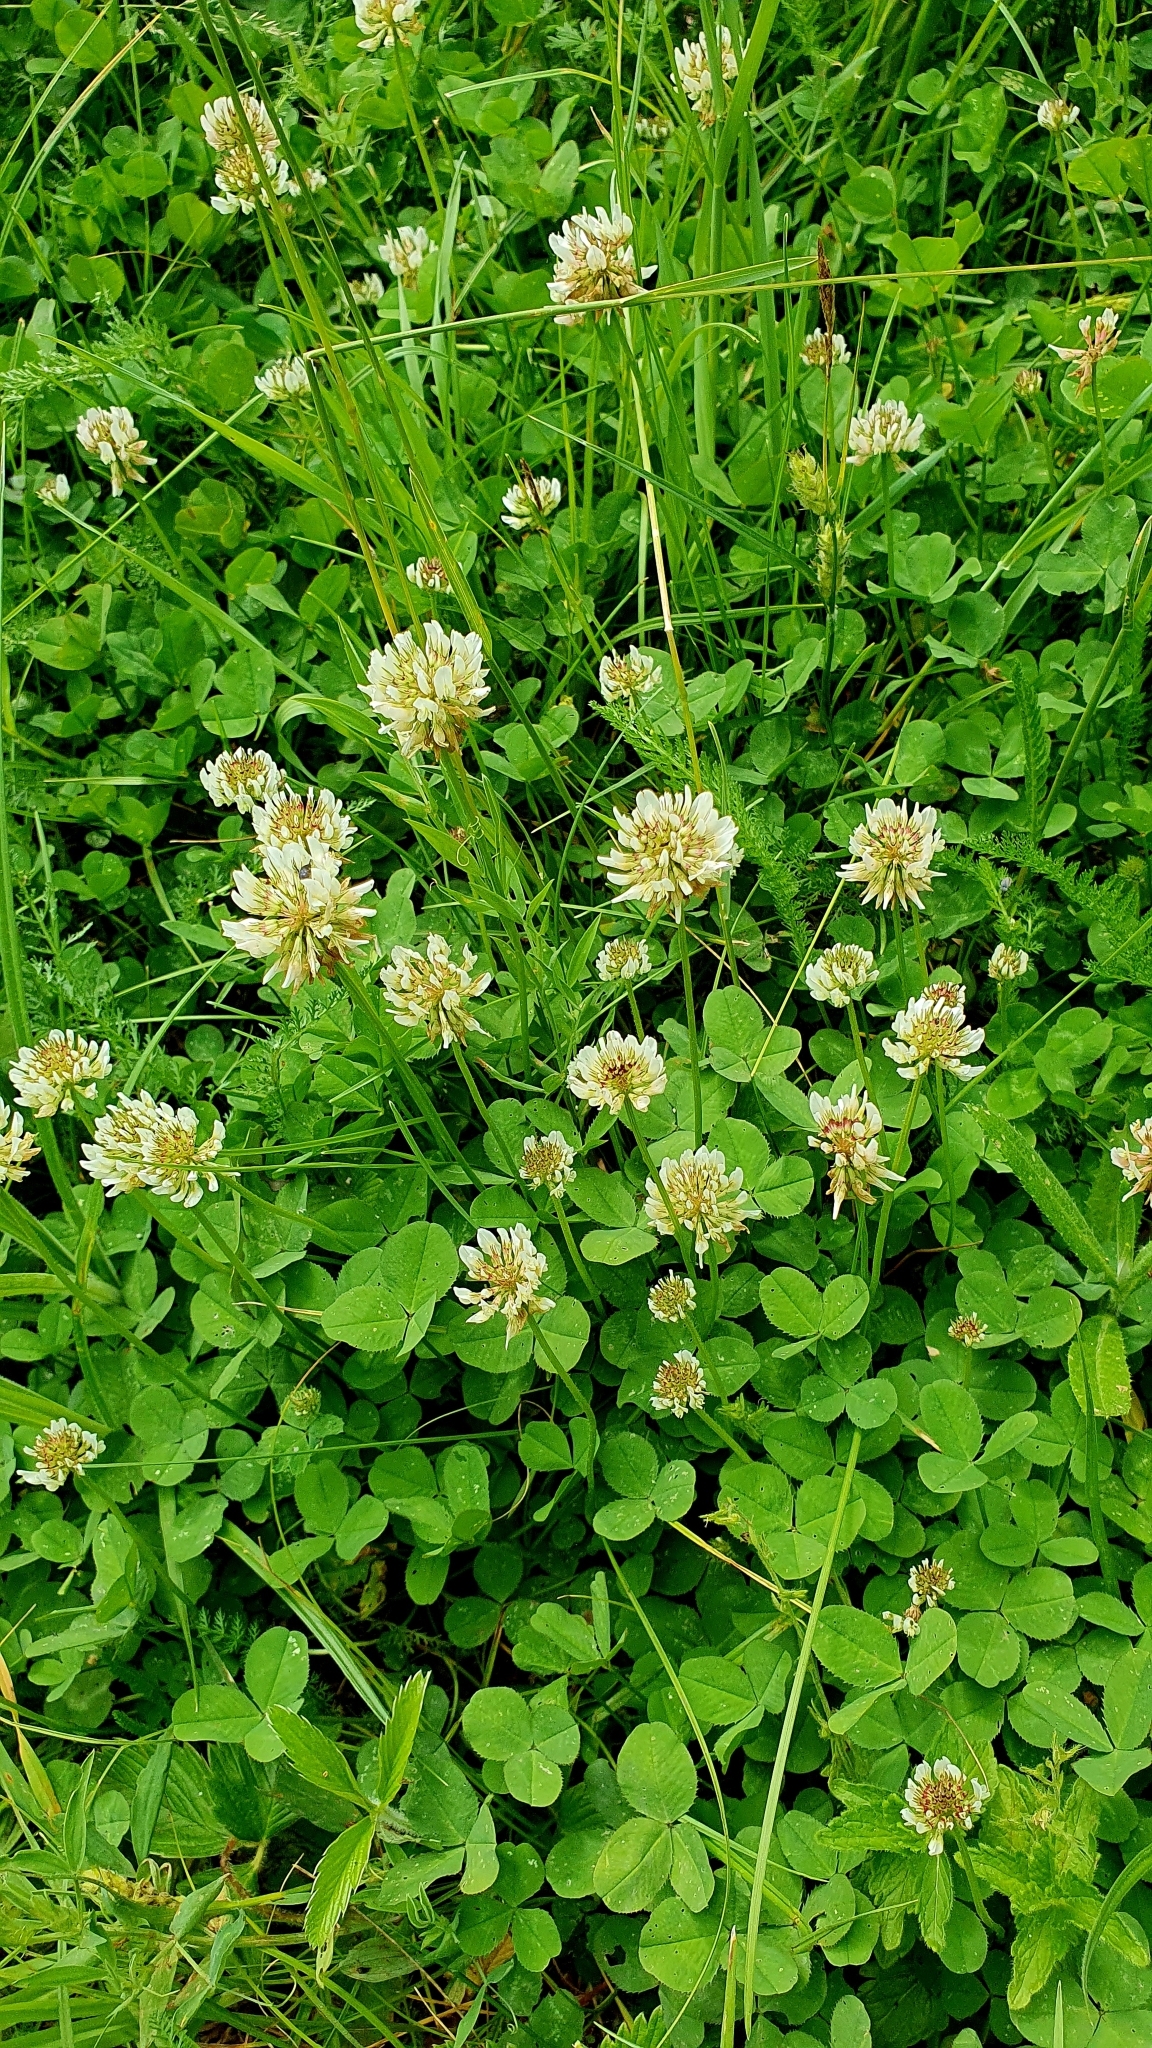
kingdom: Plantae
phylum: Tracheophyta
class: Magnoliopsida
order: Fabales
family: Fabaceae
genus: Trifolium
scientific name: Trifolium repens
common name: White clover
